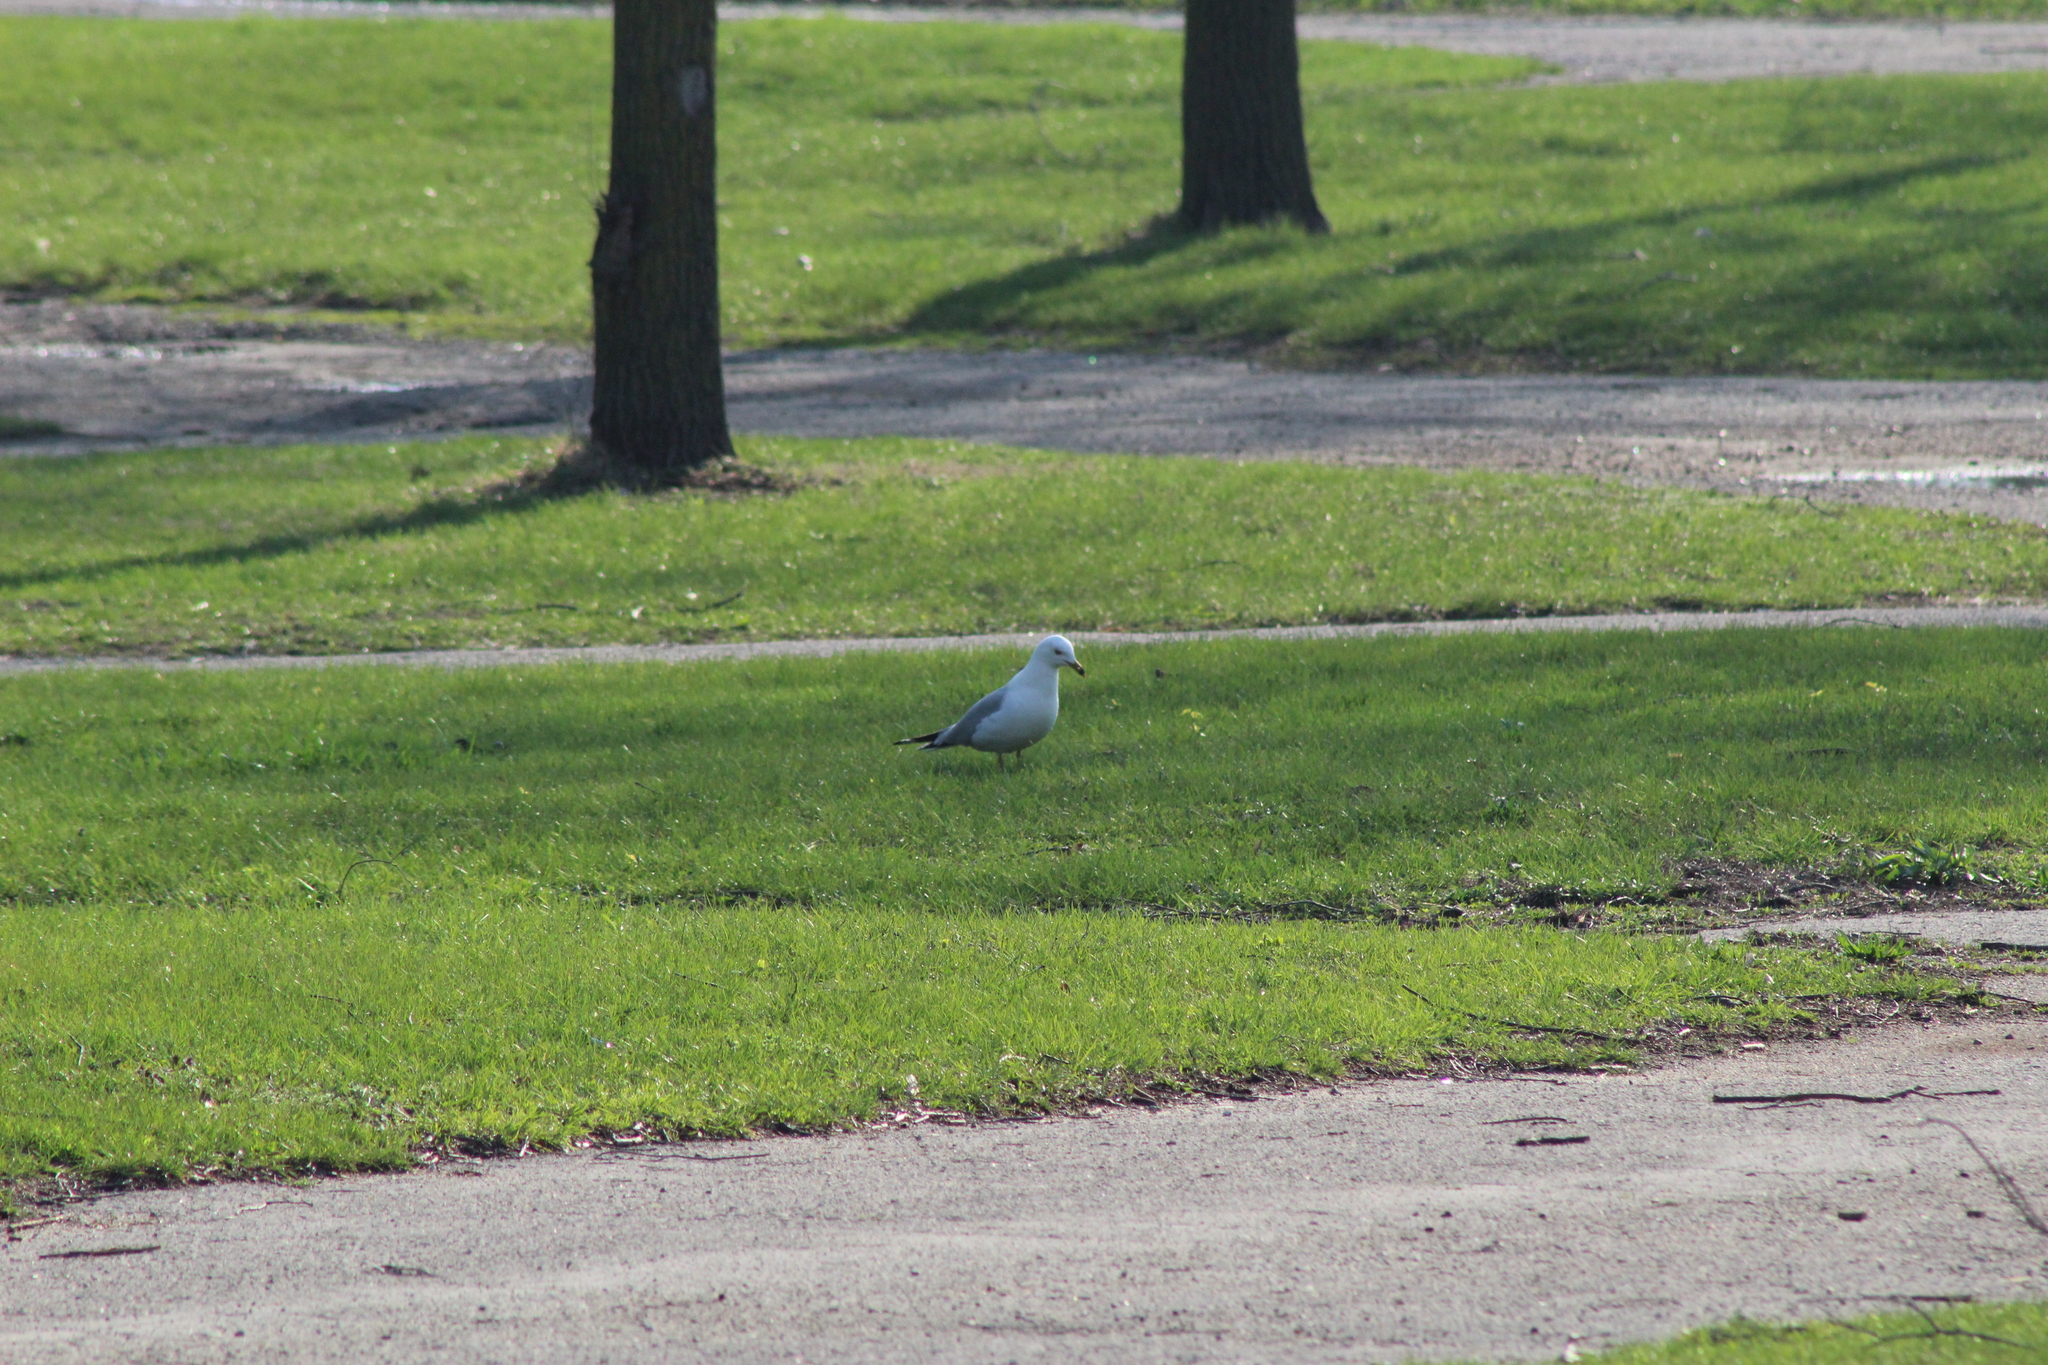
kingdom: Animalia
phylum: Chordata
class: Aves
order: Charadriiformes
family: Laridae
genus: Larus
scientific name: Larus delawarensis
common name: Ring-billed gull
